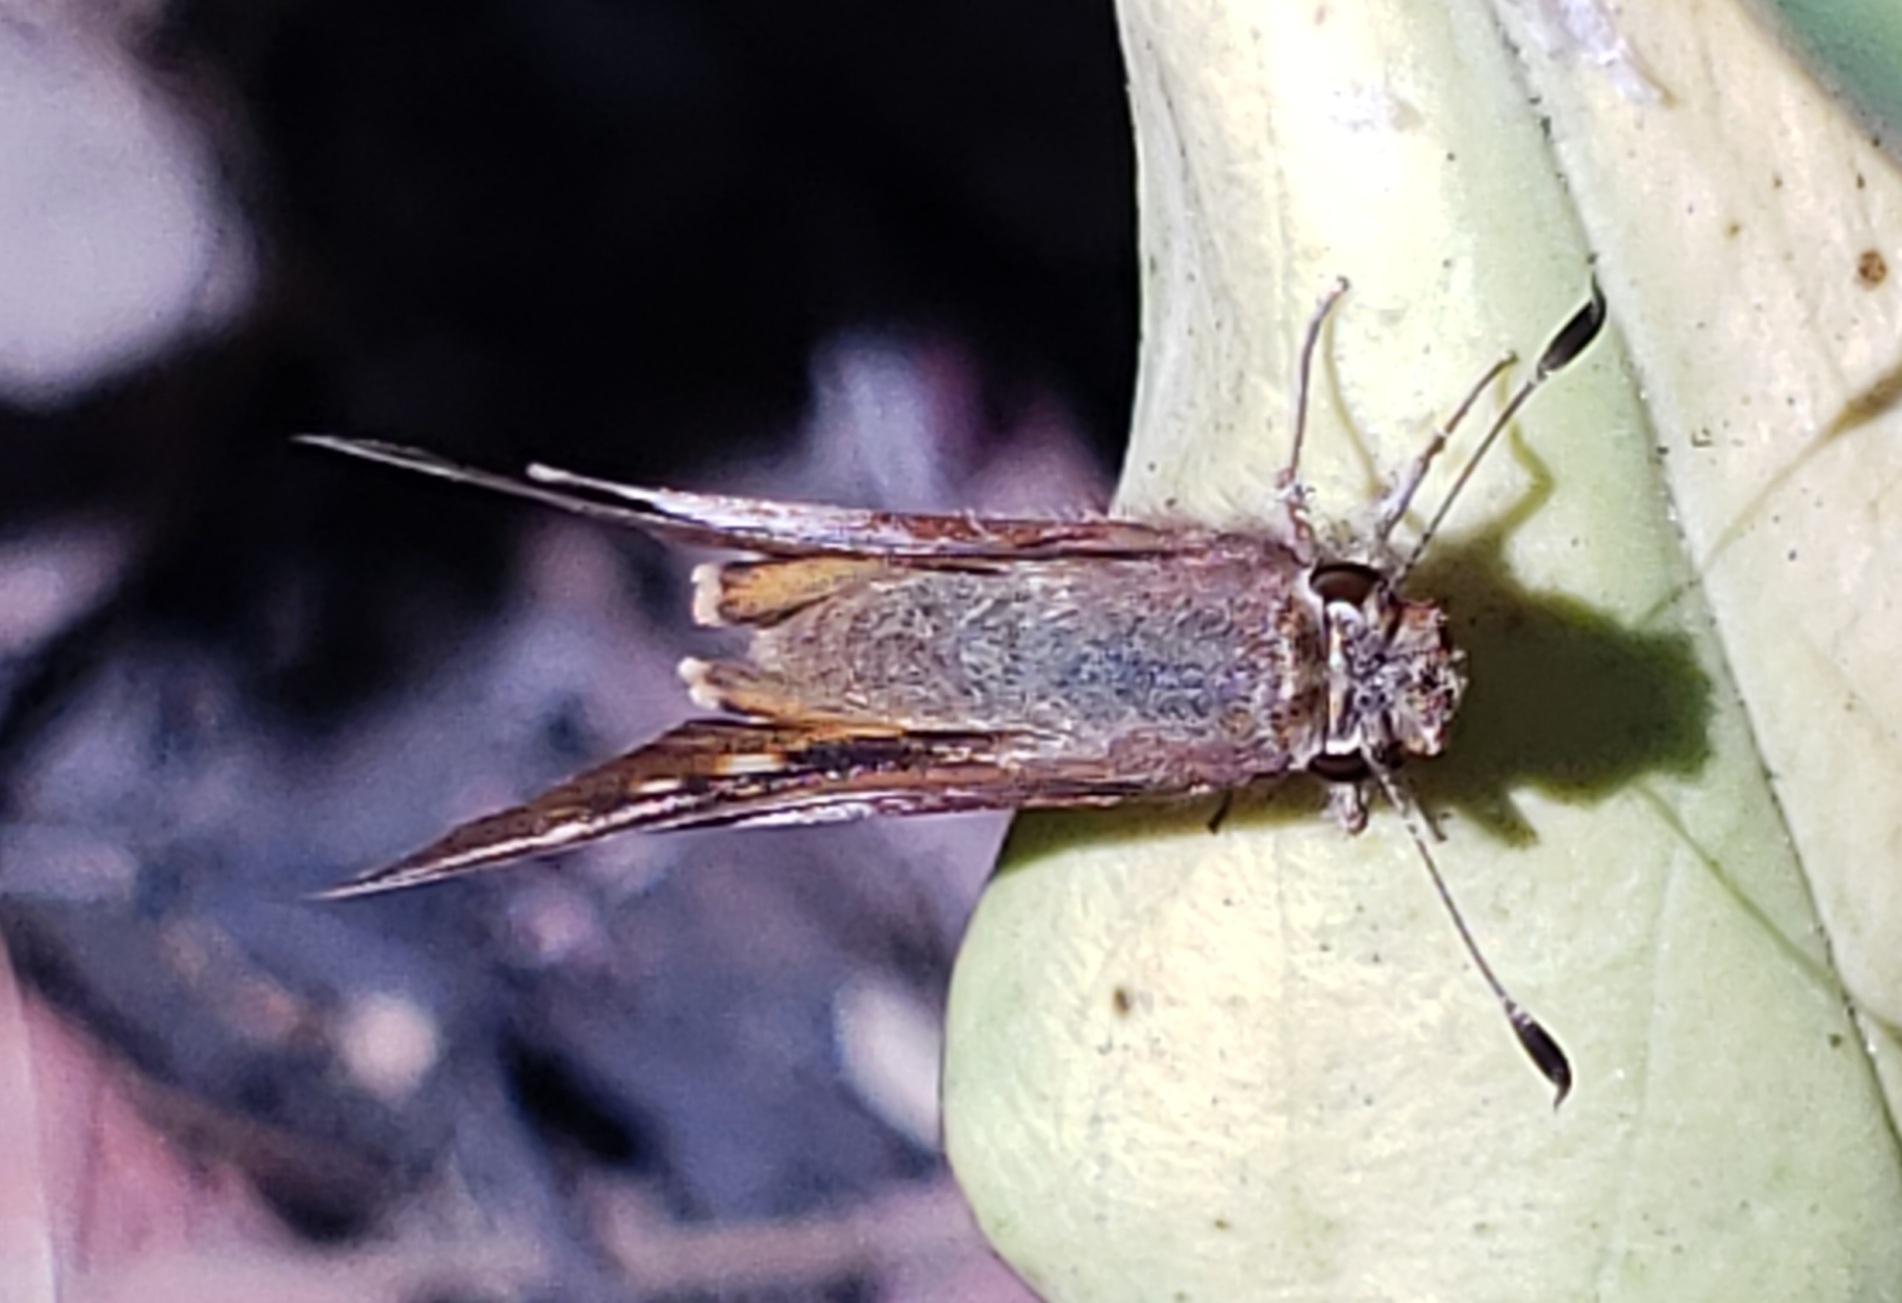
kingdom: Animalia
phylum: Arthropoda
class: Insecta
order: Lepidoptera
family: Hesperiidae
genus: Lon
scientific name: Lon melane
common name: Umber skipper
